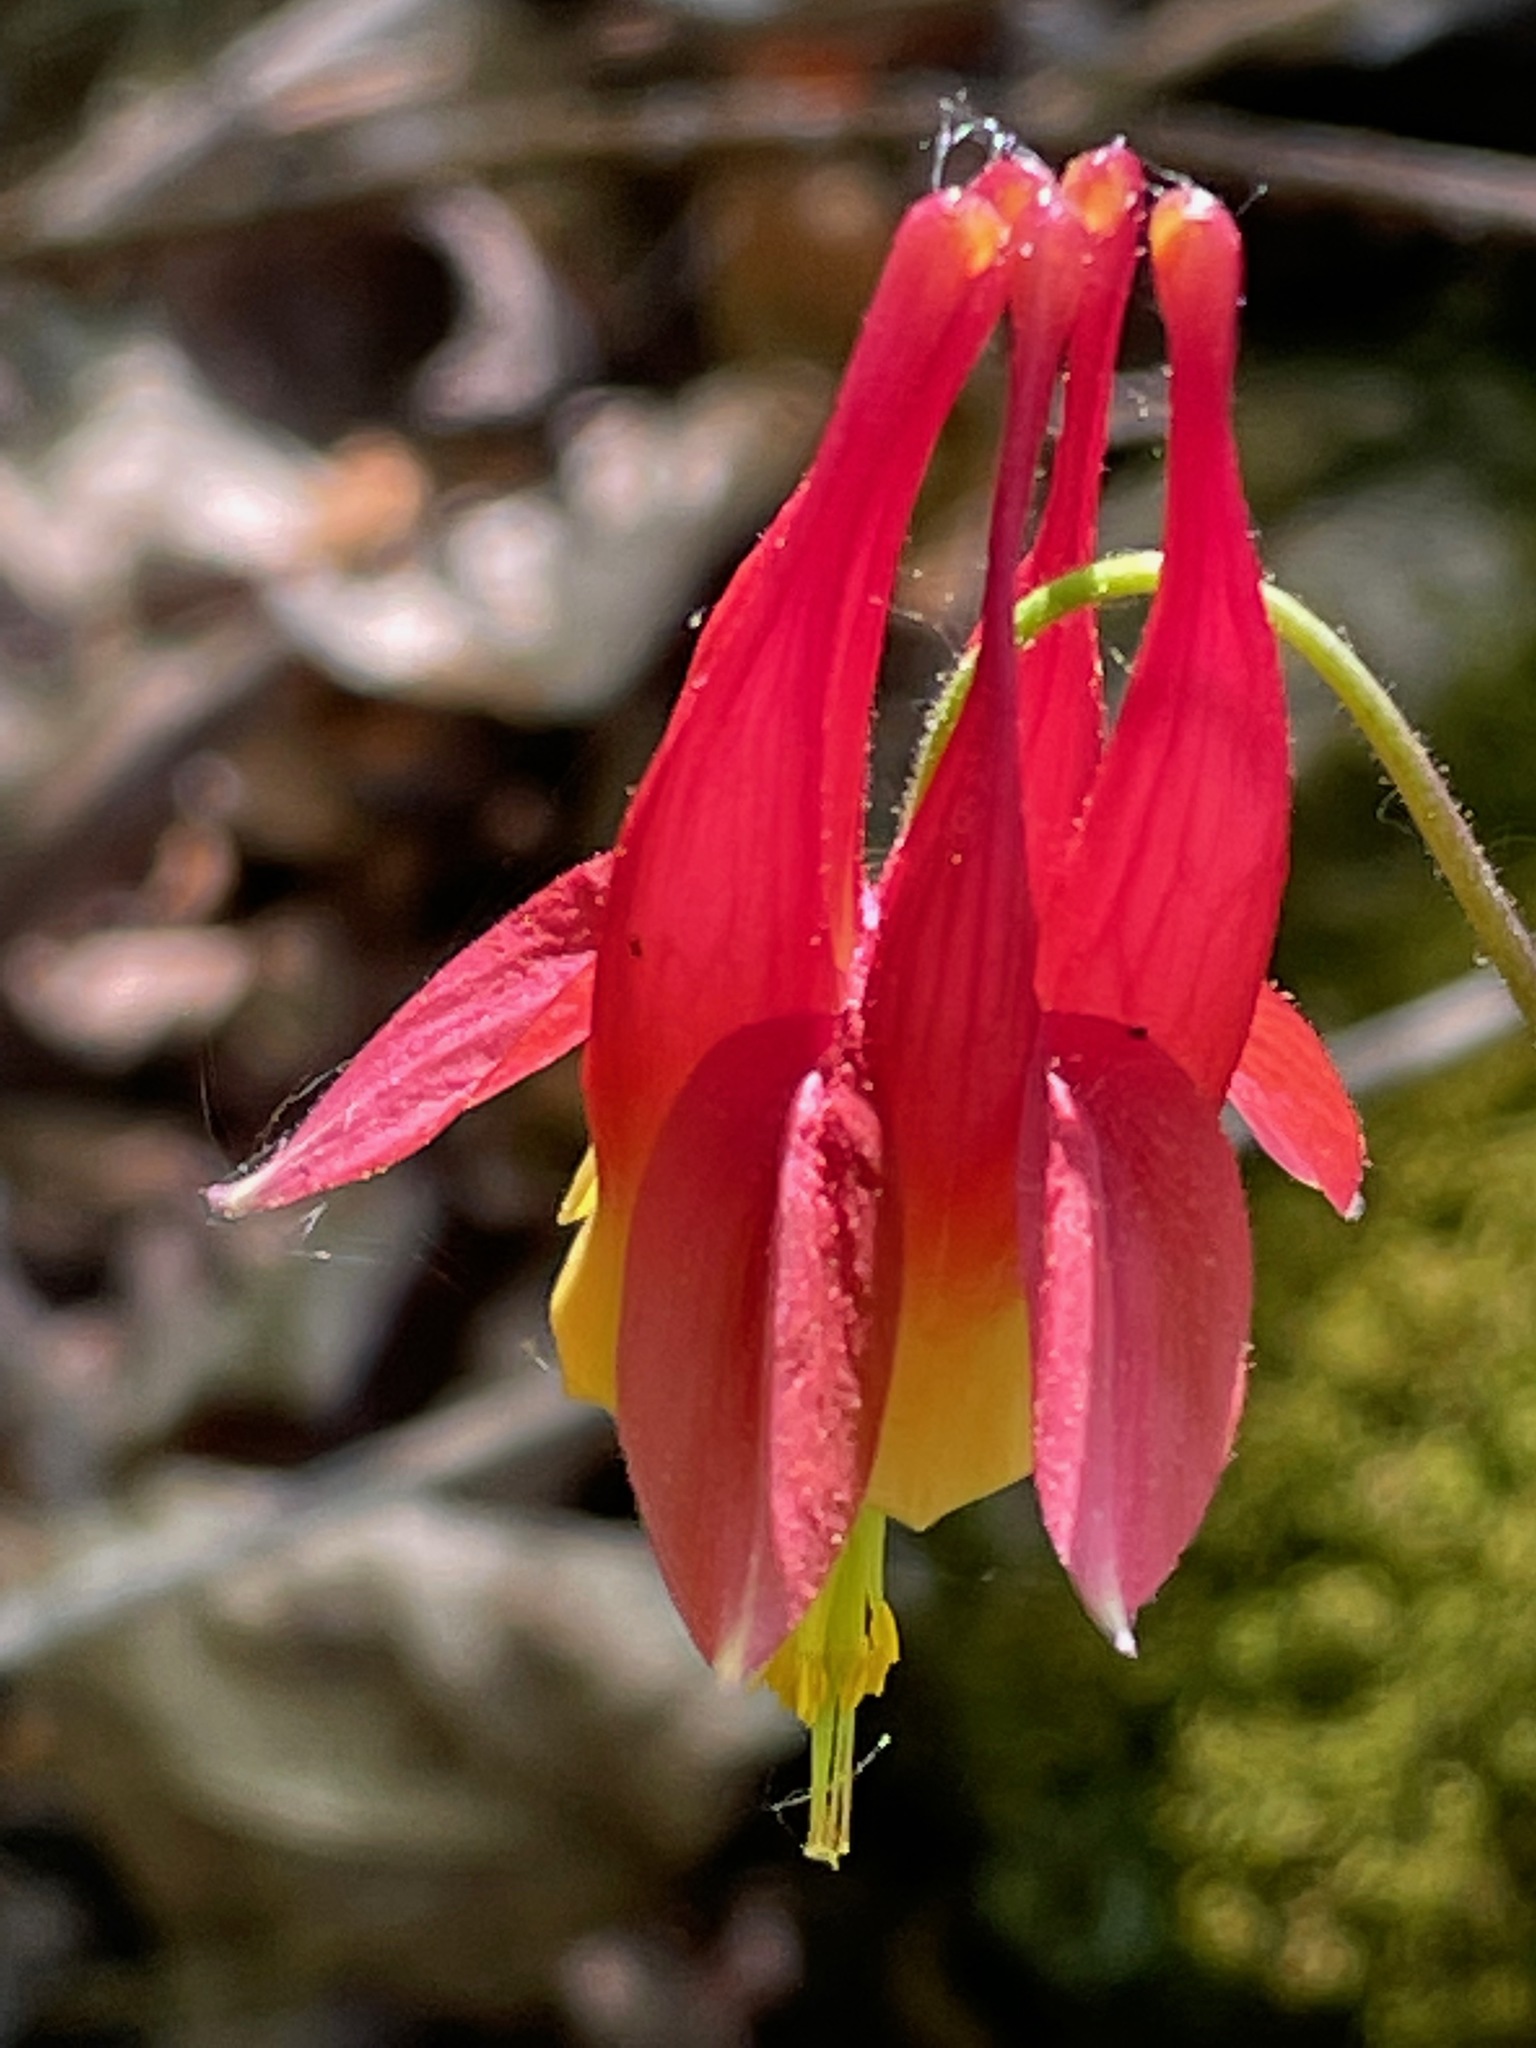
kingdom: Plantae
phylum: Tracheophyta
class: Magnoliopsida
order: Ranunculales
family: Ranunculaceae
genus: Aquilegia
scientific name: Aquilegia canadensis
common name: American columbine
